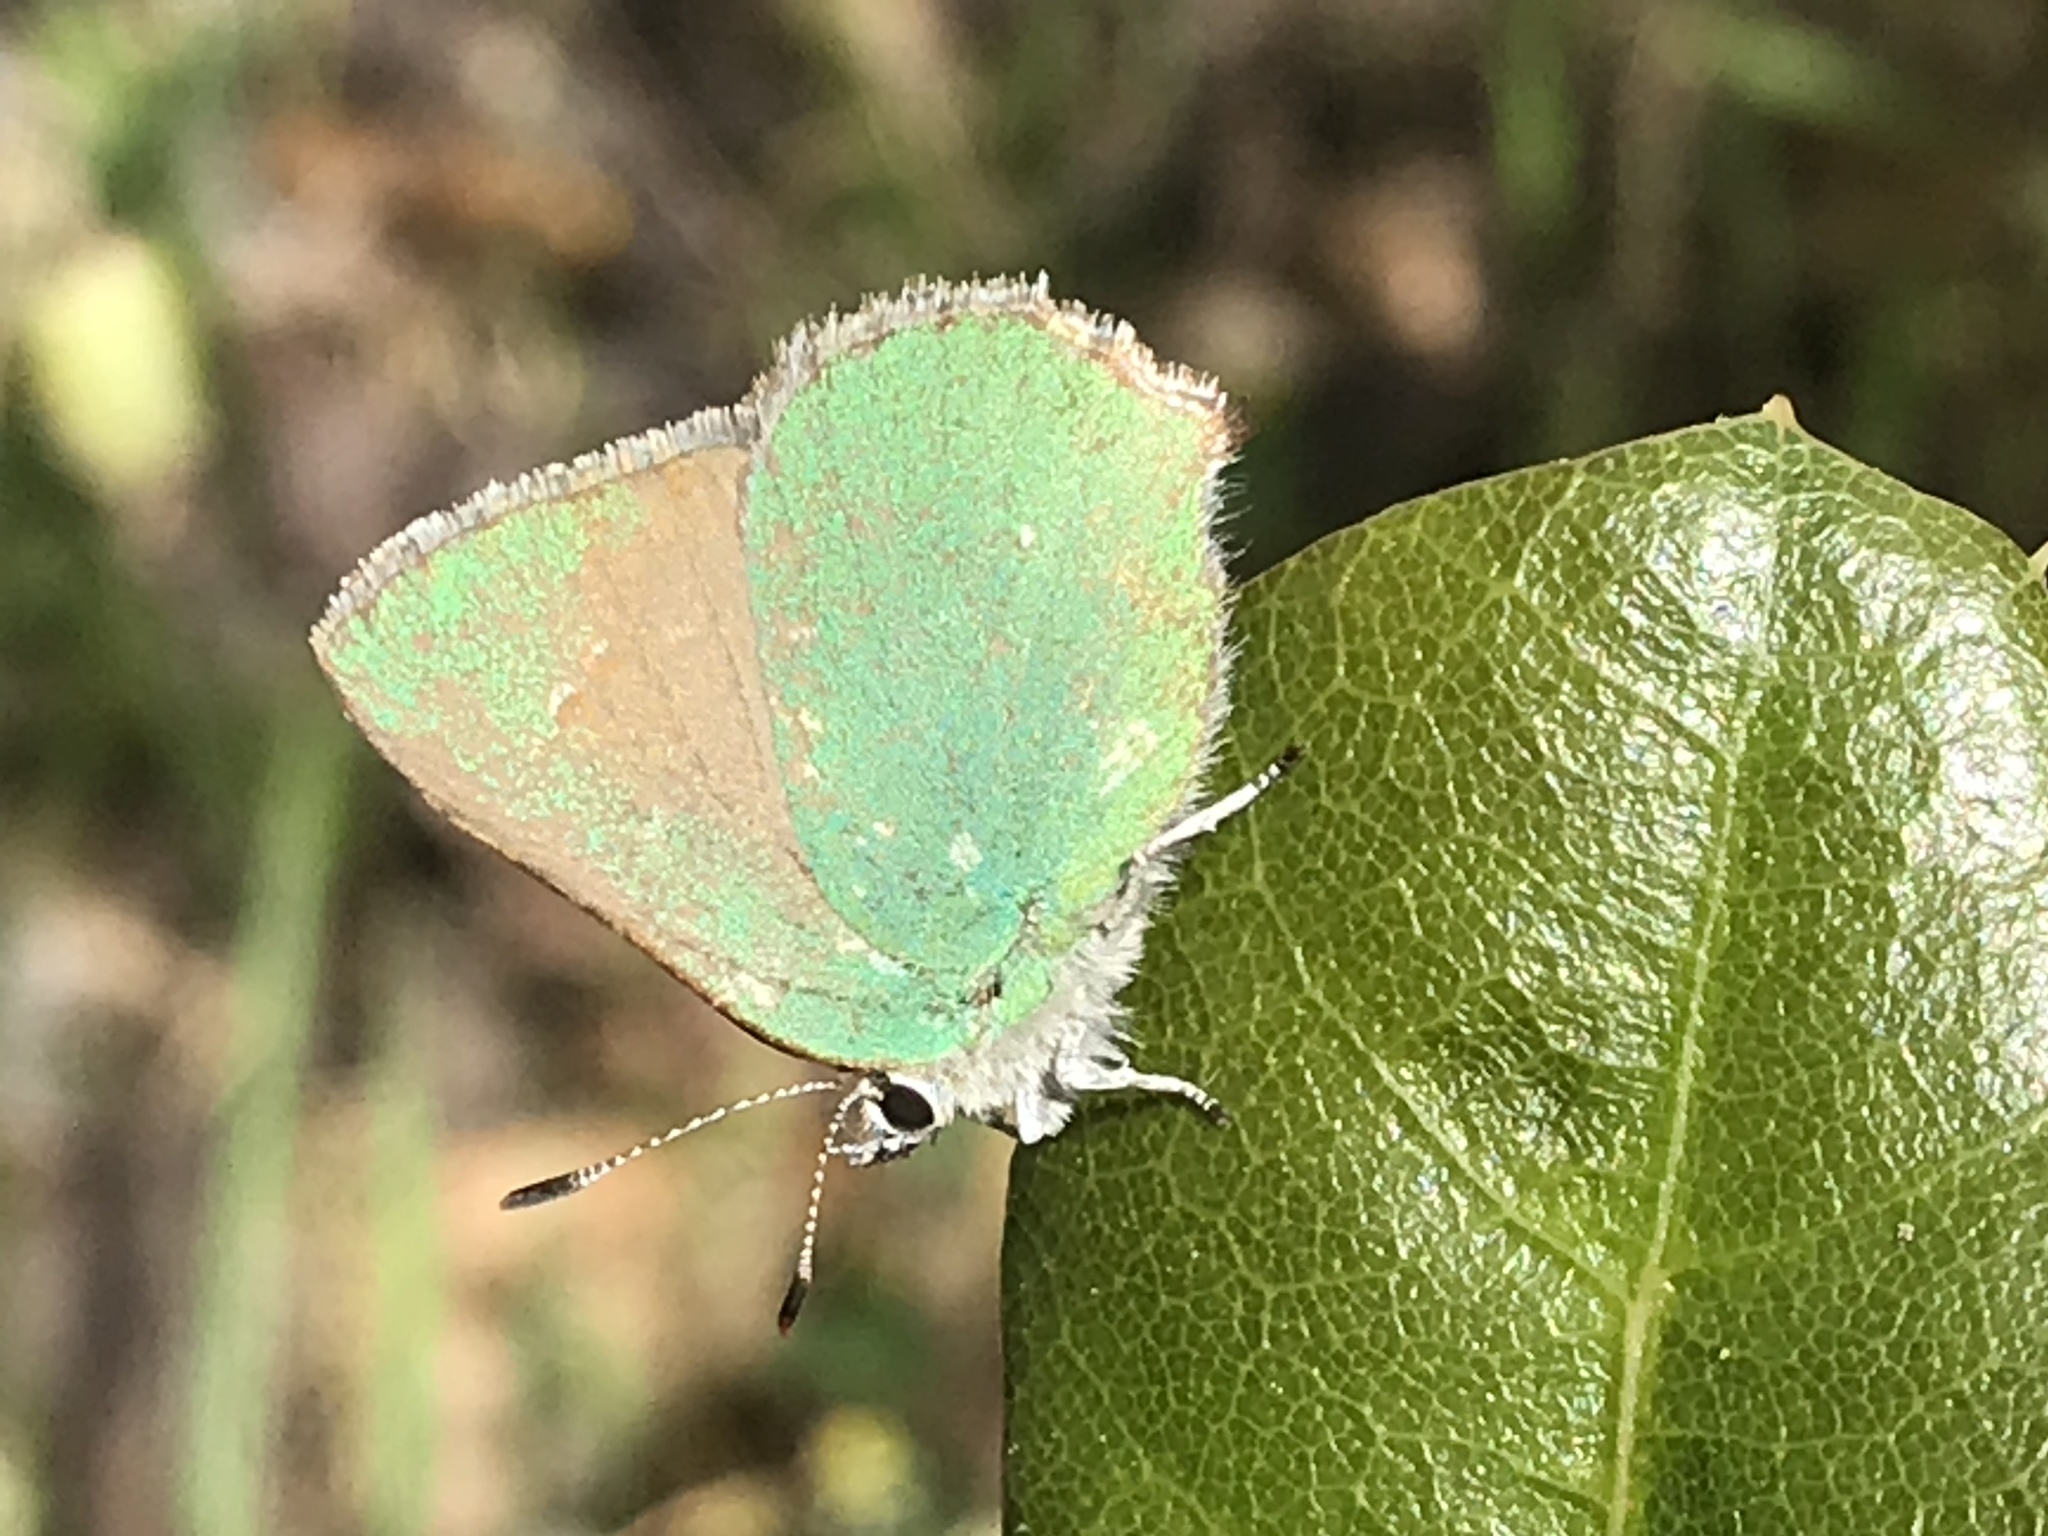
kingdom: Animalia
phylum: Arthropoda
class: Insecta
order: Lepidoptera
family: Lycaenidae
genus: Callophrys
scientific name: Callophrys dumetorum
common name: Bramble hairstreak
